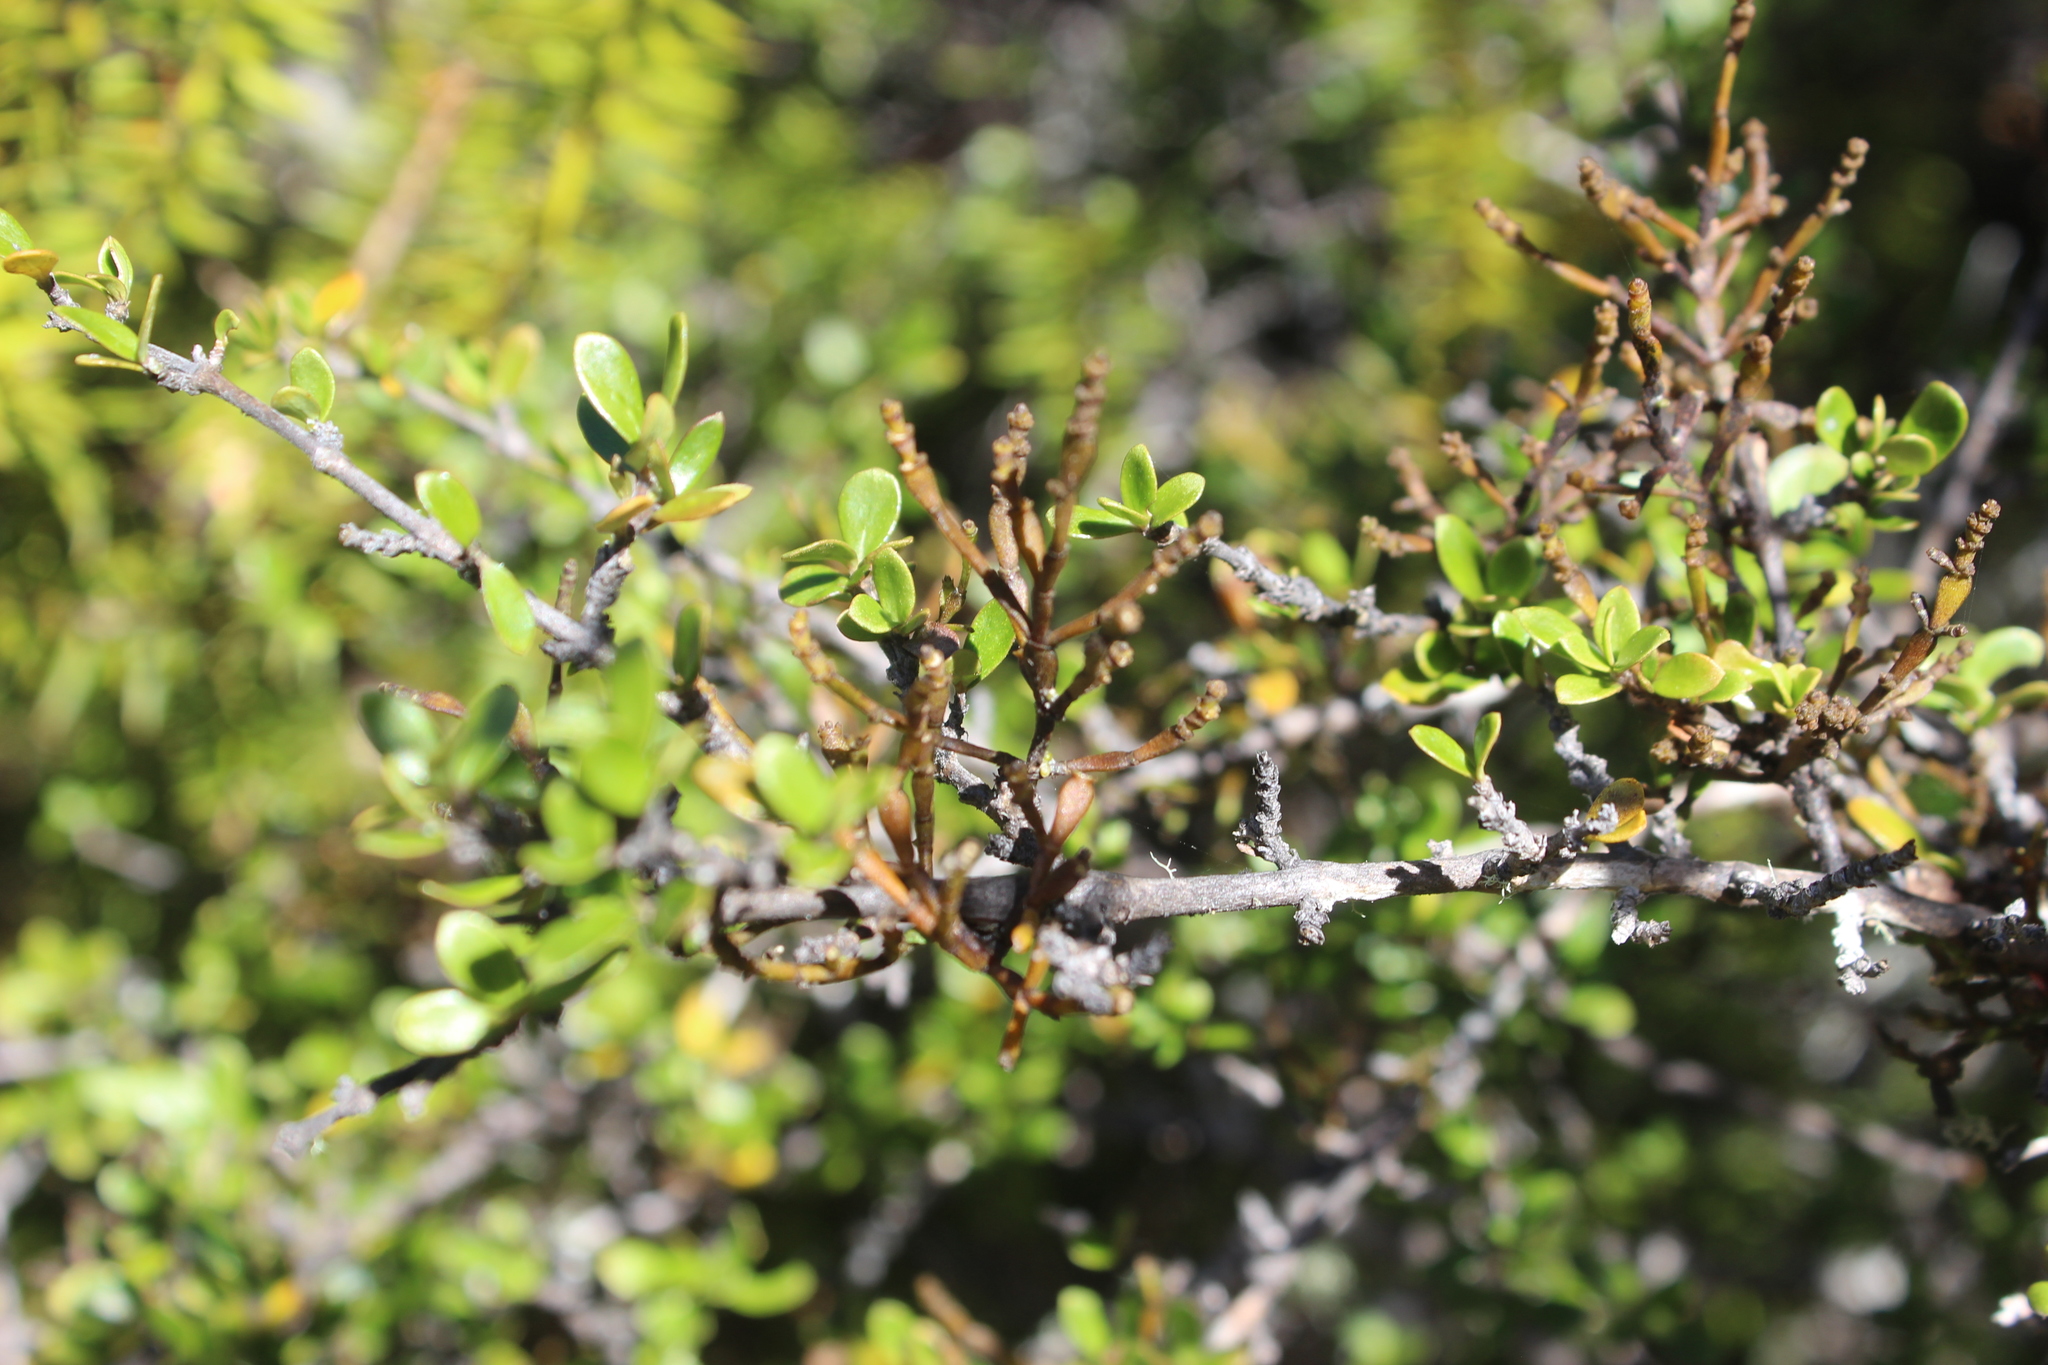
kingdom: Plantae
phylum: Tracheophyta
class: Magnoliopsida
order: Santalales
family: Viscaceae
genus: Korthalsella
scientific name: Korthalsella clavata
